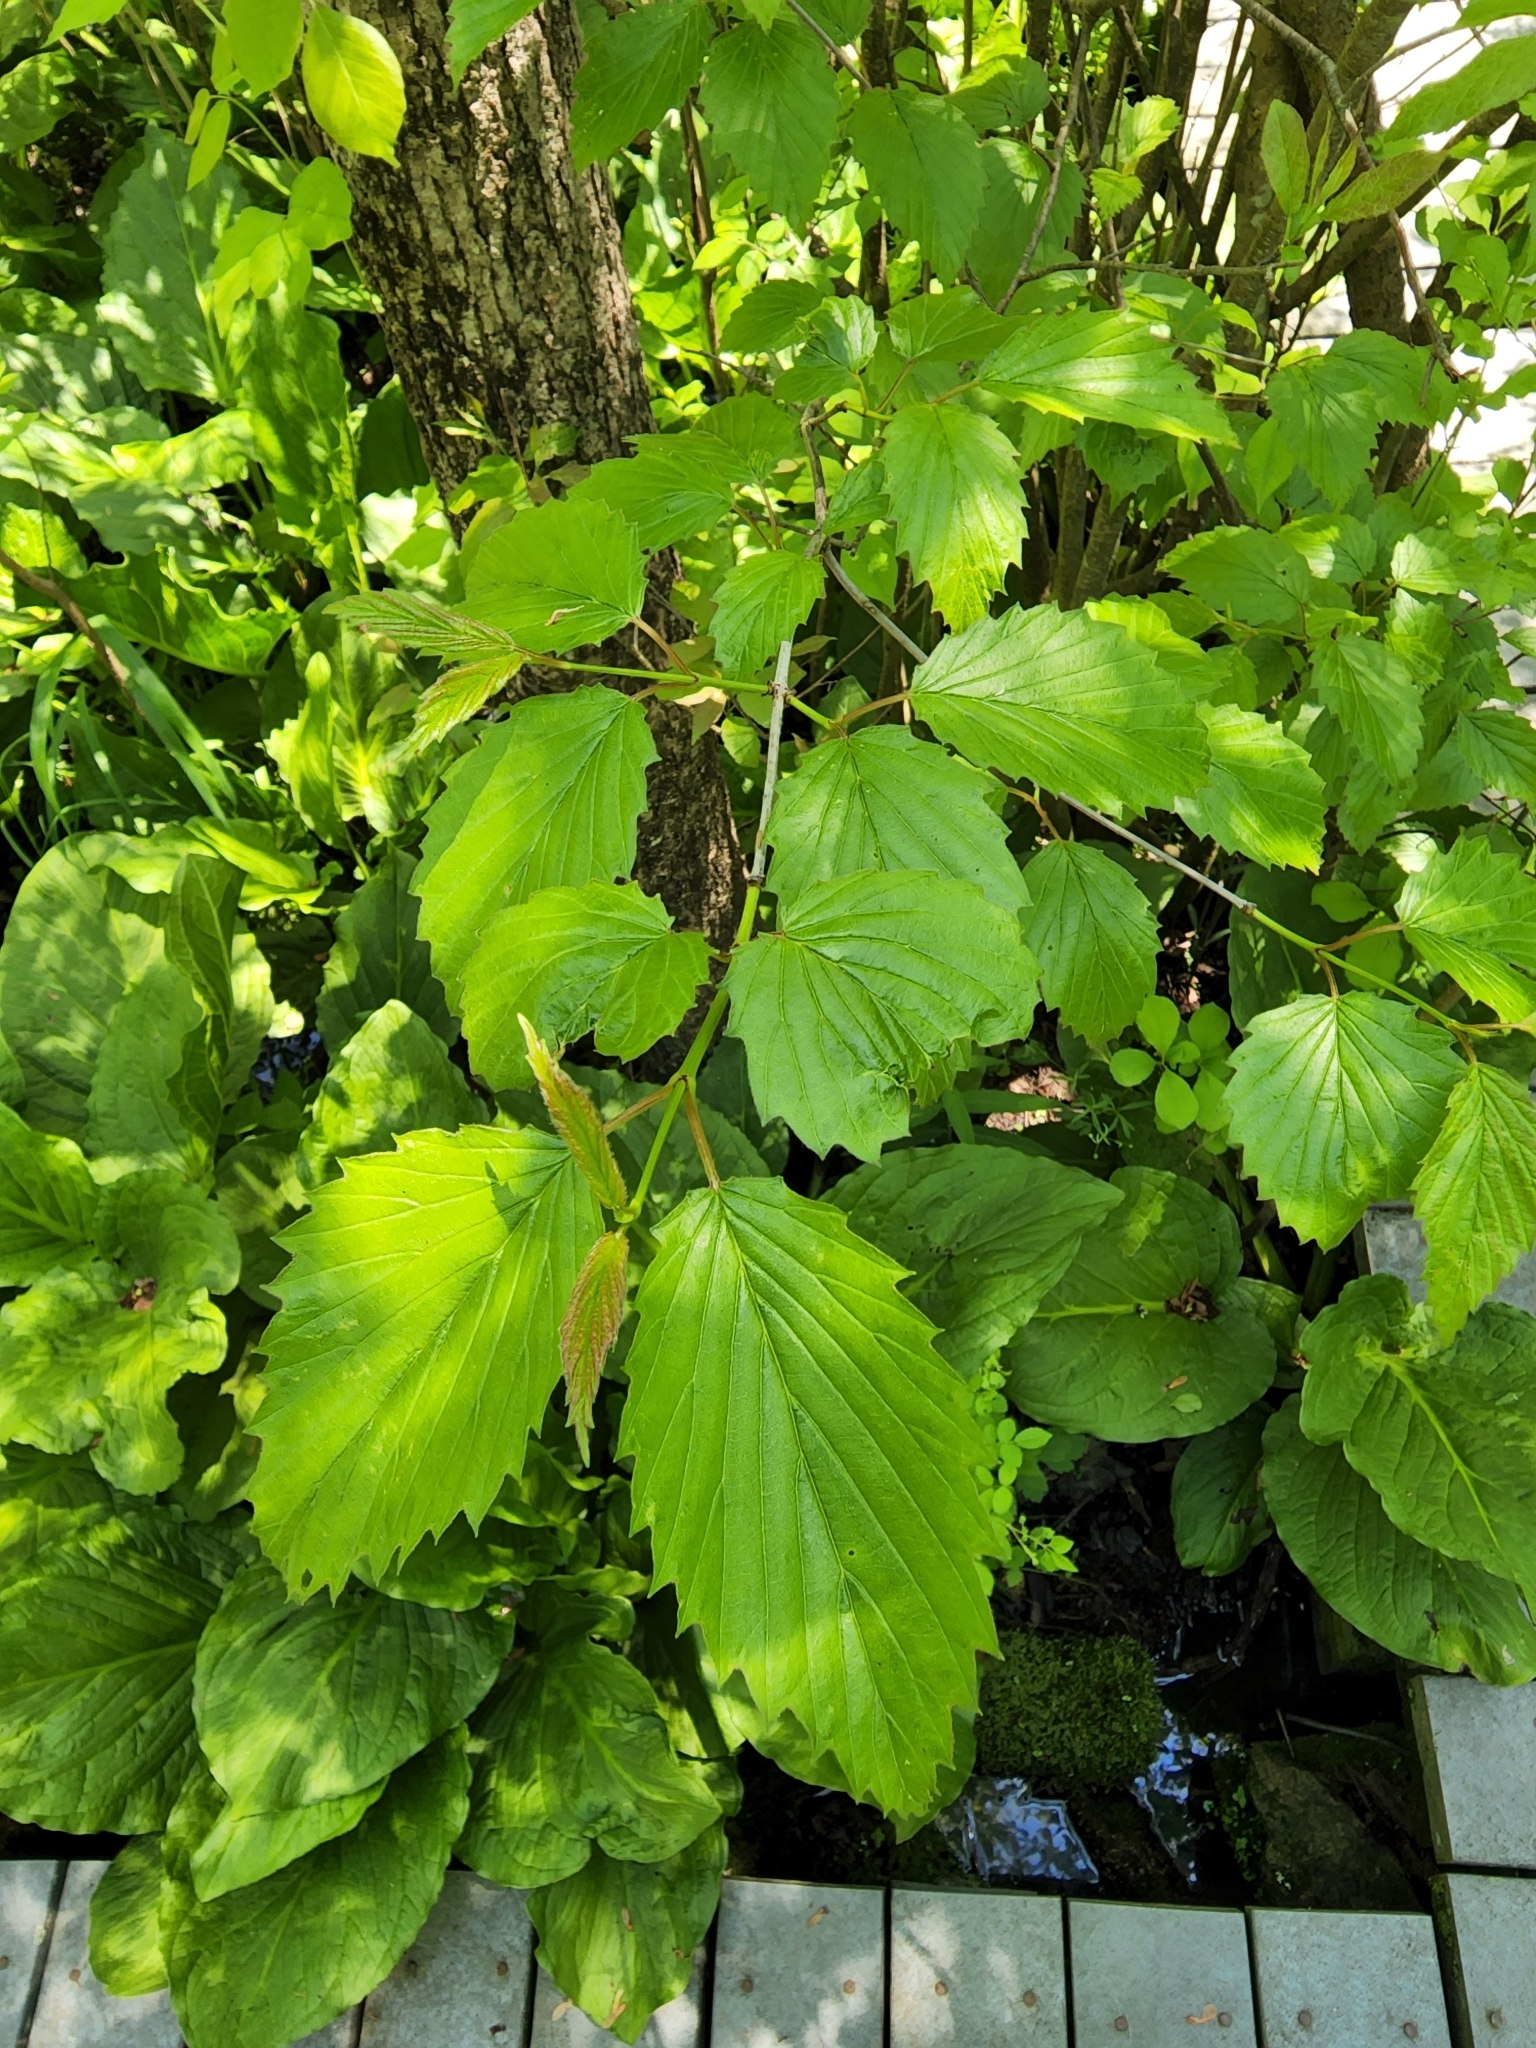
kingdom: Plantae
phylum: Tracheophyta
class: Magnoliopsida
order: Dipsacales
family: Viburnaceae
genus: Viburnum
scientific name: Viburnum recognitum
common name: Northern arrow-wood
